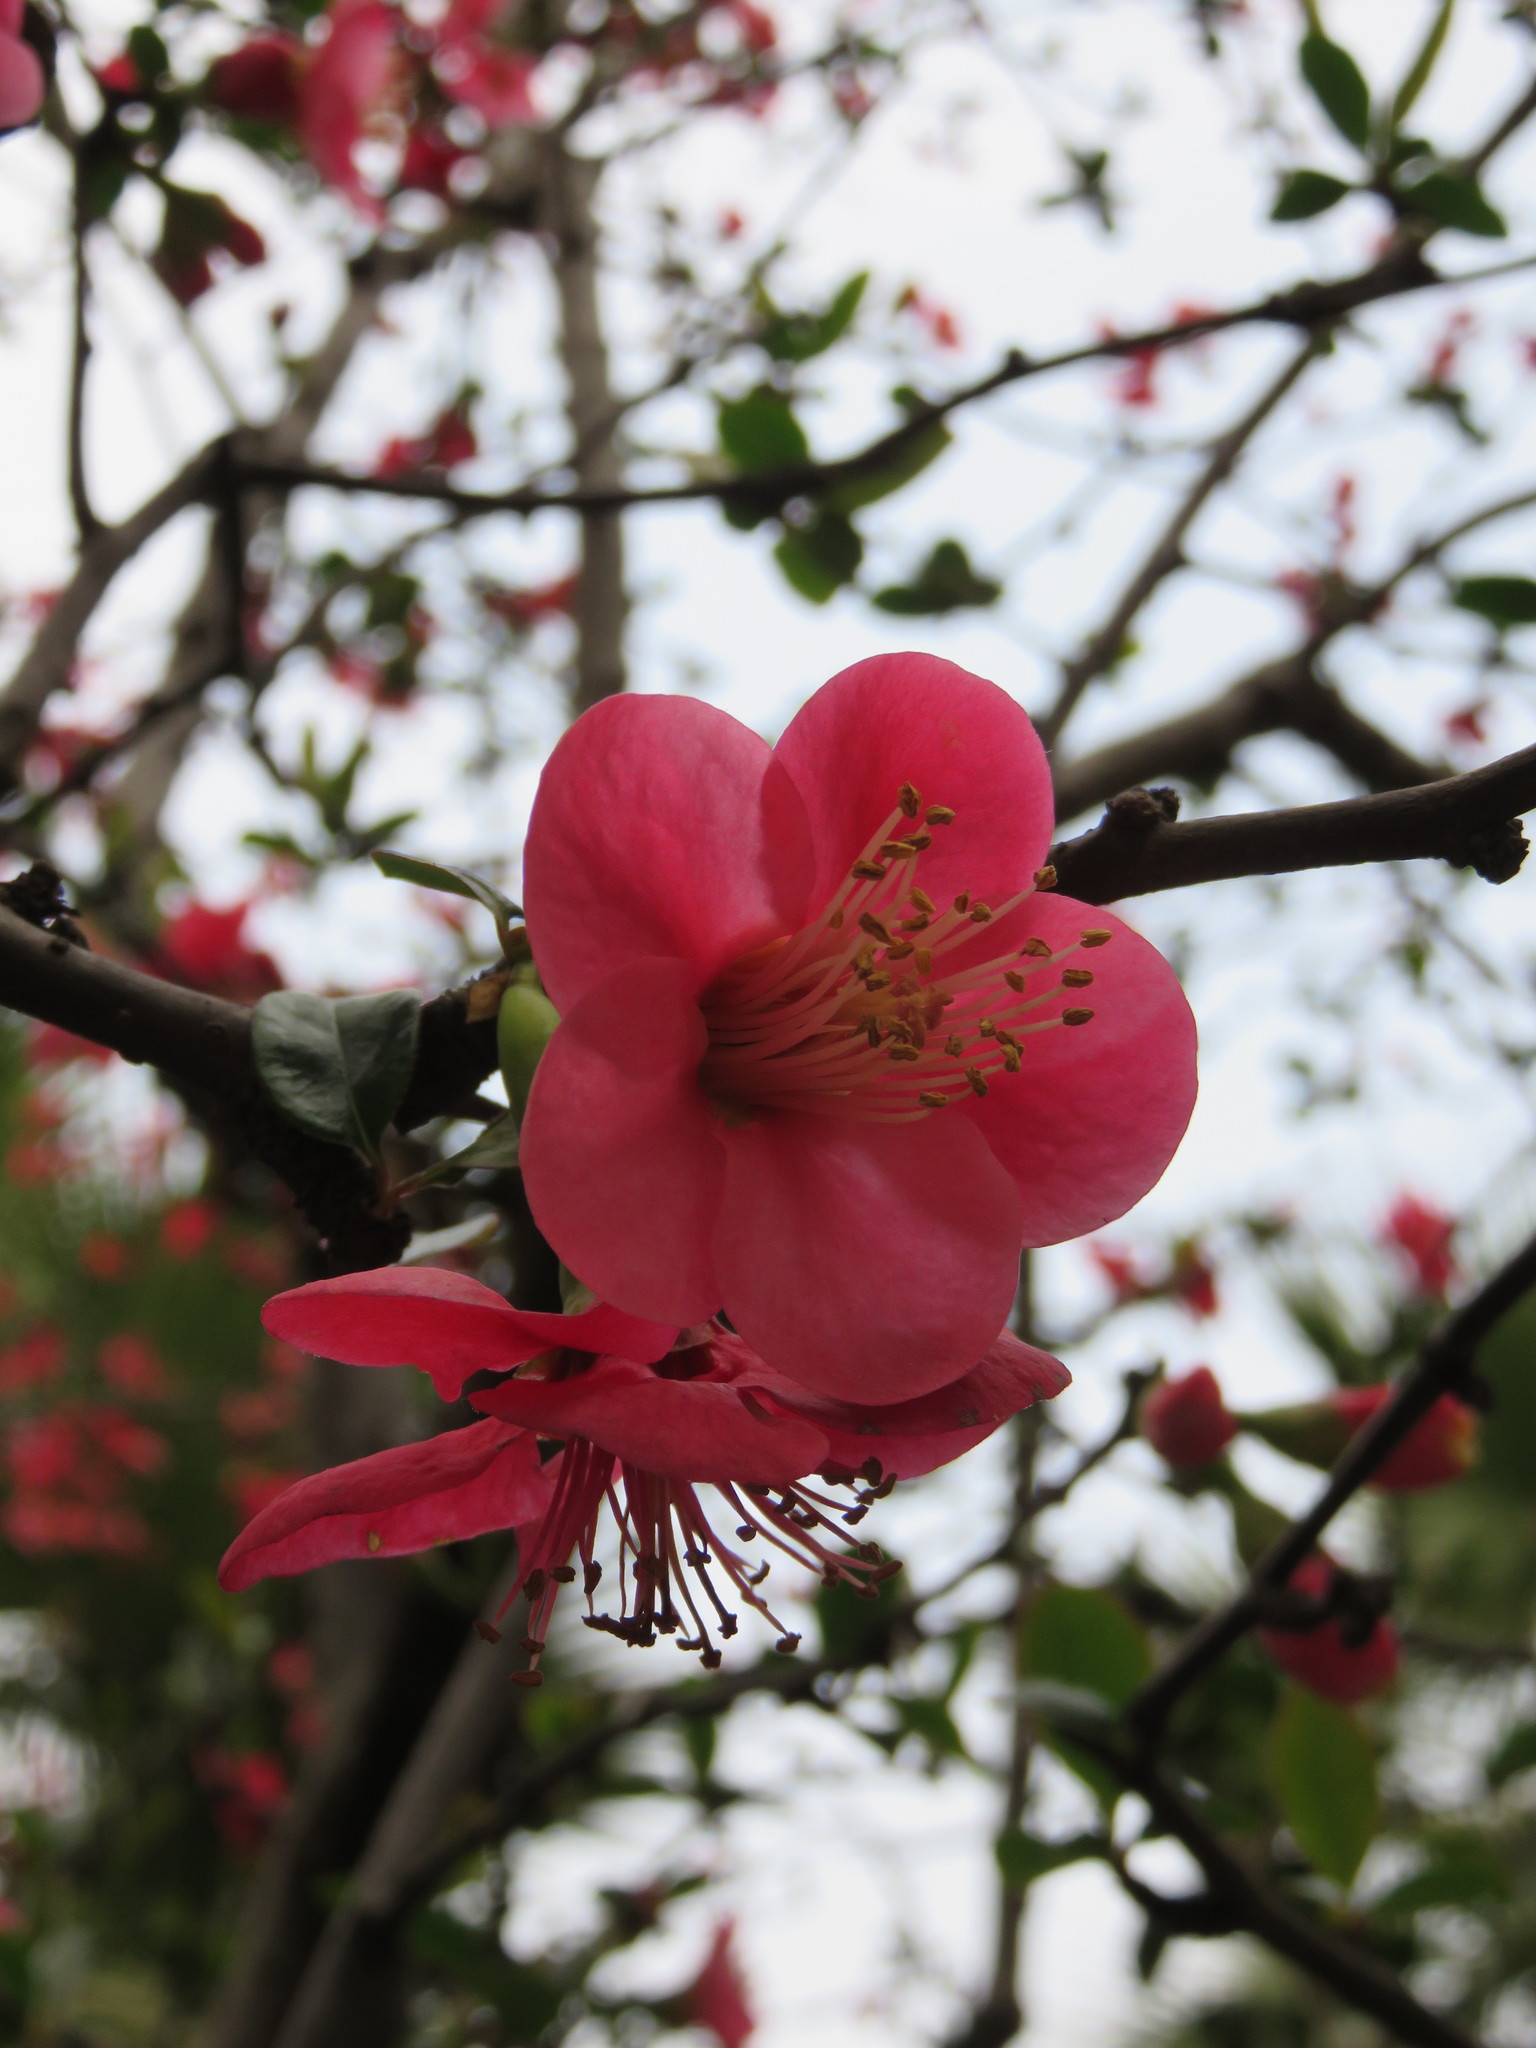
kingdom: Plantae
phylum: Tracheophyta
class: Magnoliopsida
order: Rosales
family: Rosaceae
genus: Chaenomeles
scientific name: Chaenomeles speciosa
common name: Japanese quince
